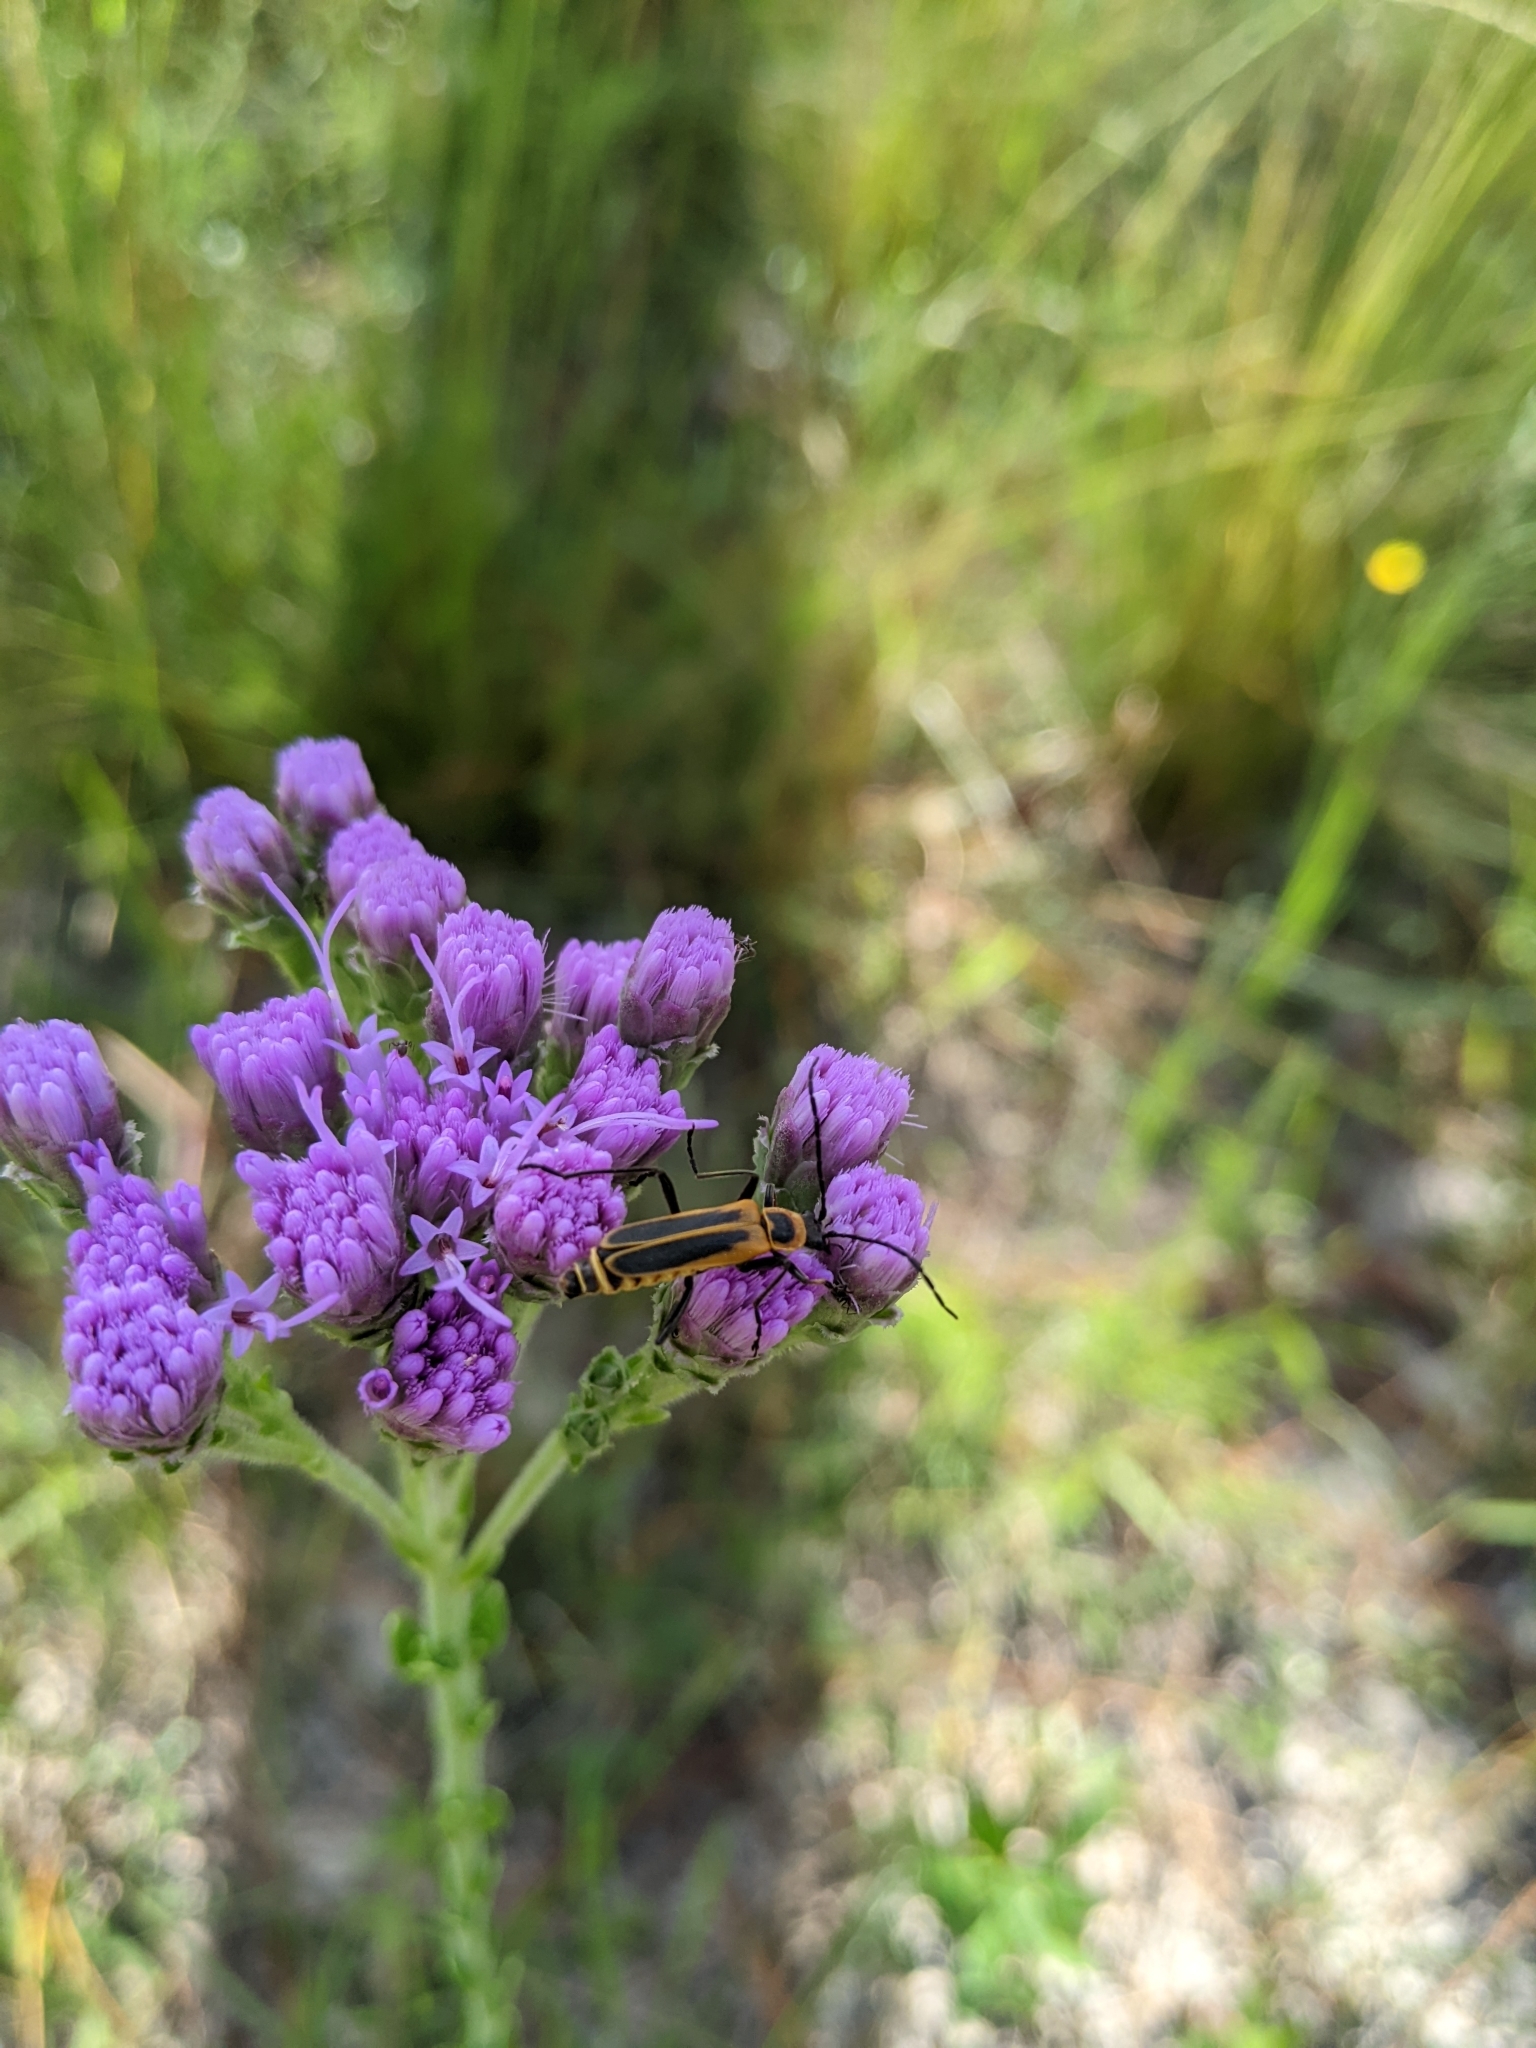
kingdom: Animalia
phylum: Arthropoda
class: Insecta
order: Coleoptera
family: Cantharidae
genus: Chauliognathus
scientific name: Chauliognathus pensylvanicus
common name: Goldenrod soldier beetle
